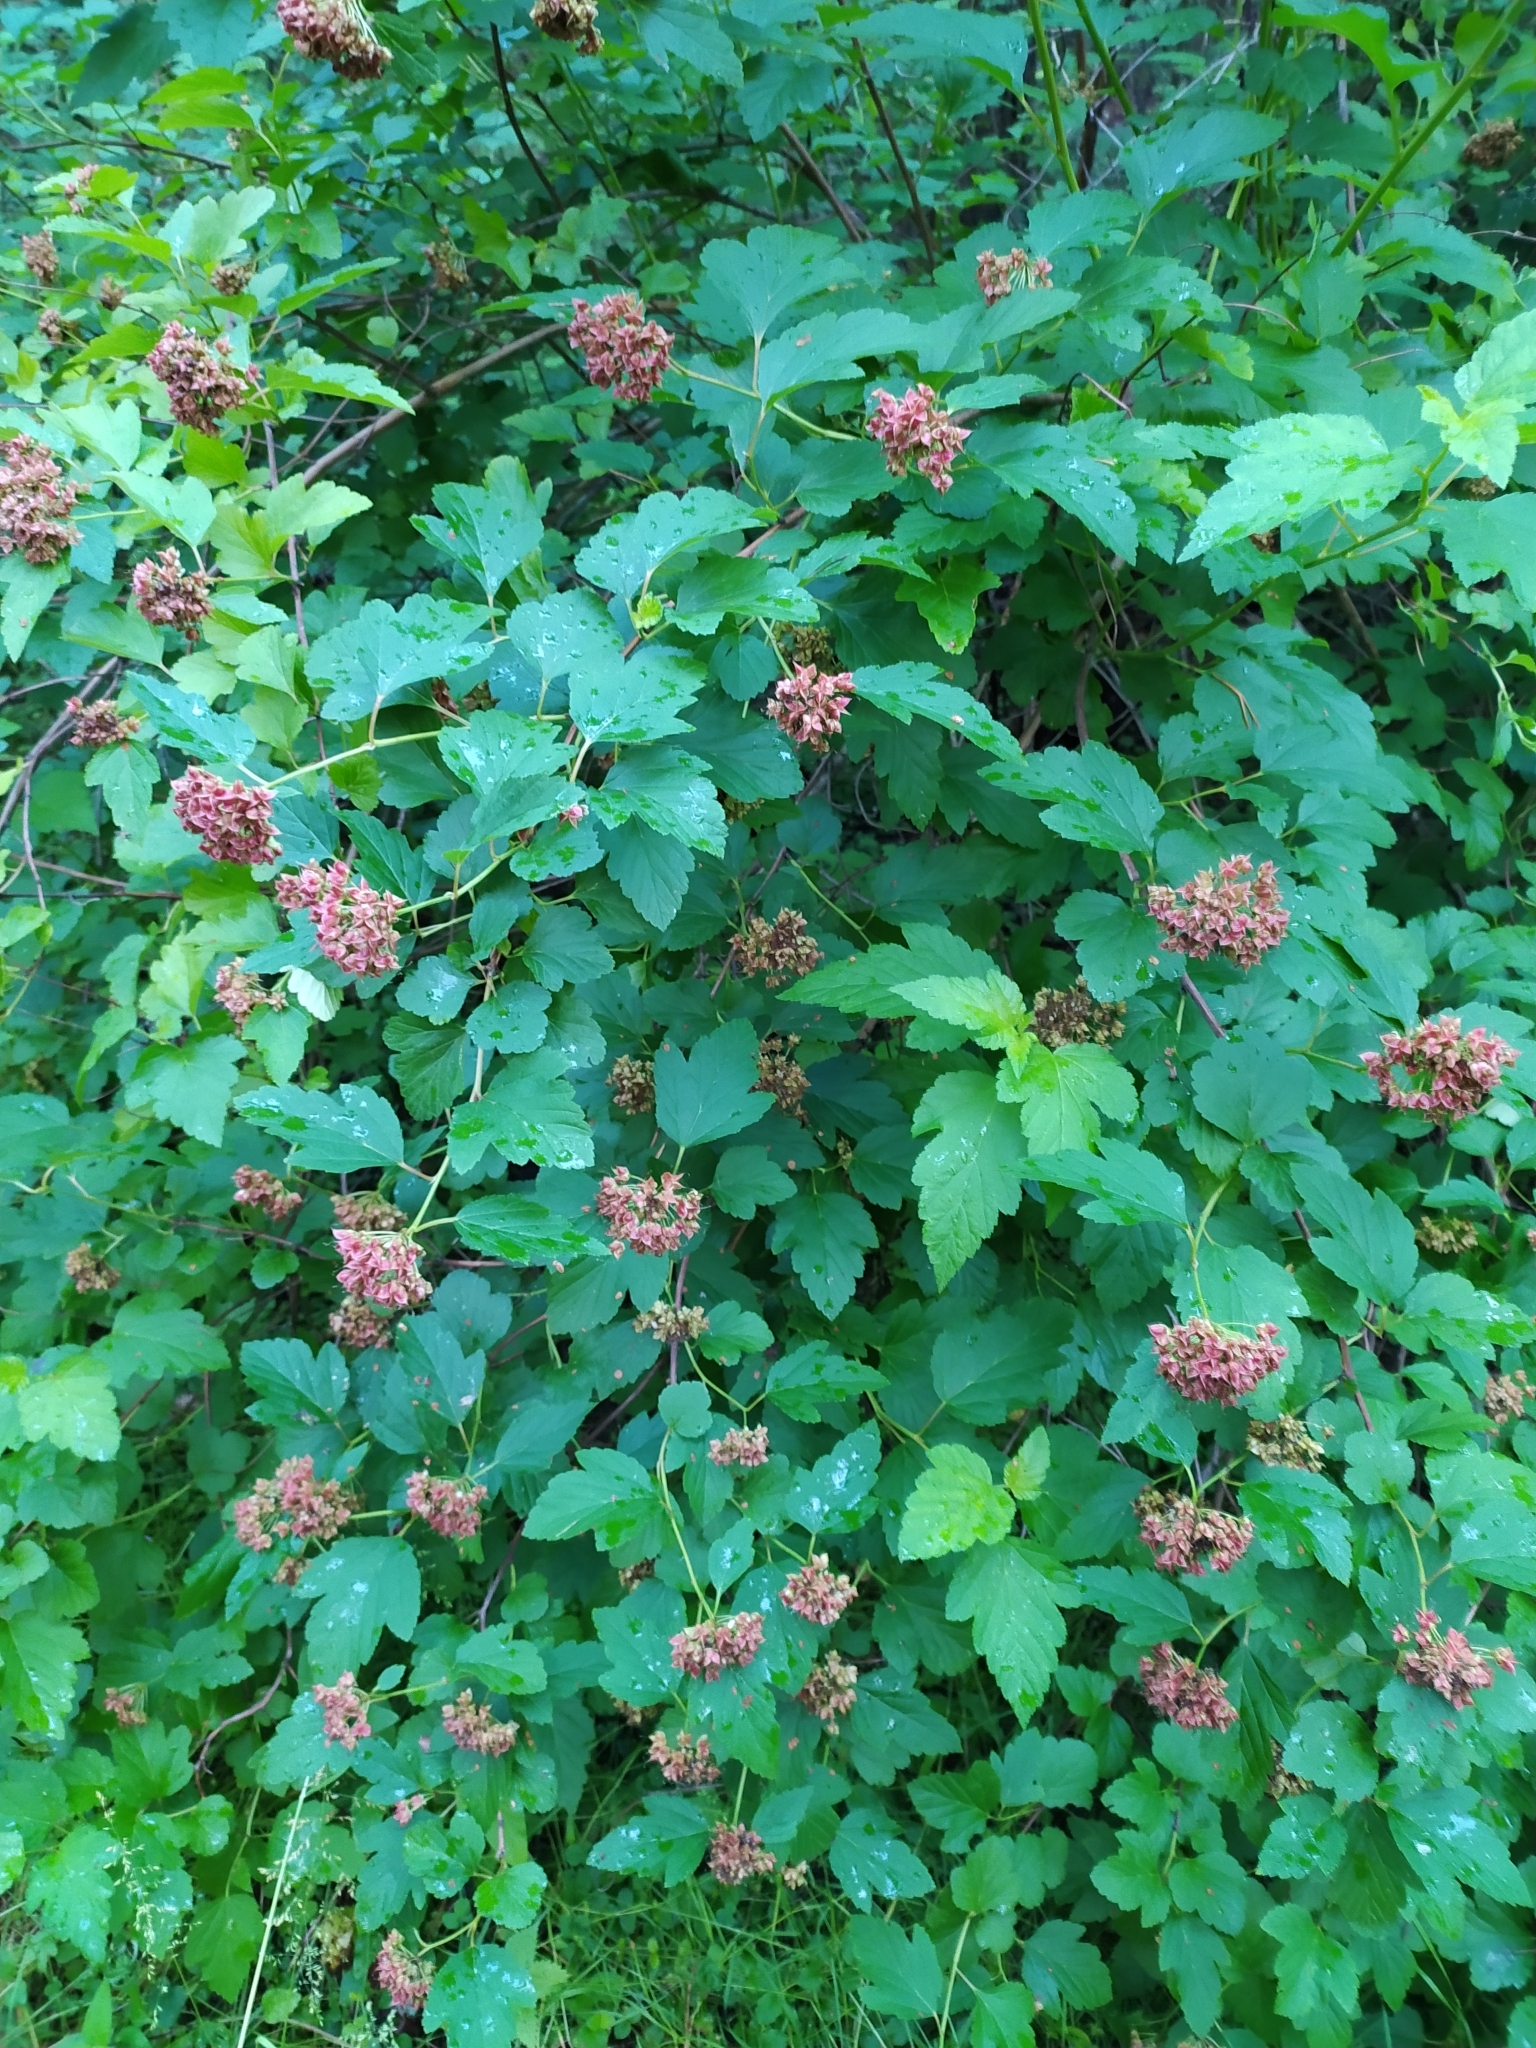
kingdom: Plantae
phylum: Tracheophyta
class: Magnoliopsida
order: Rosales
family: Rosaceae
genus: Physocarpus
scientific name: Physocarpus opulifolius
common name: Ninebark
